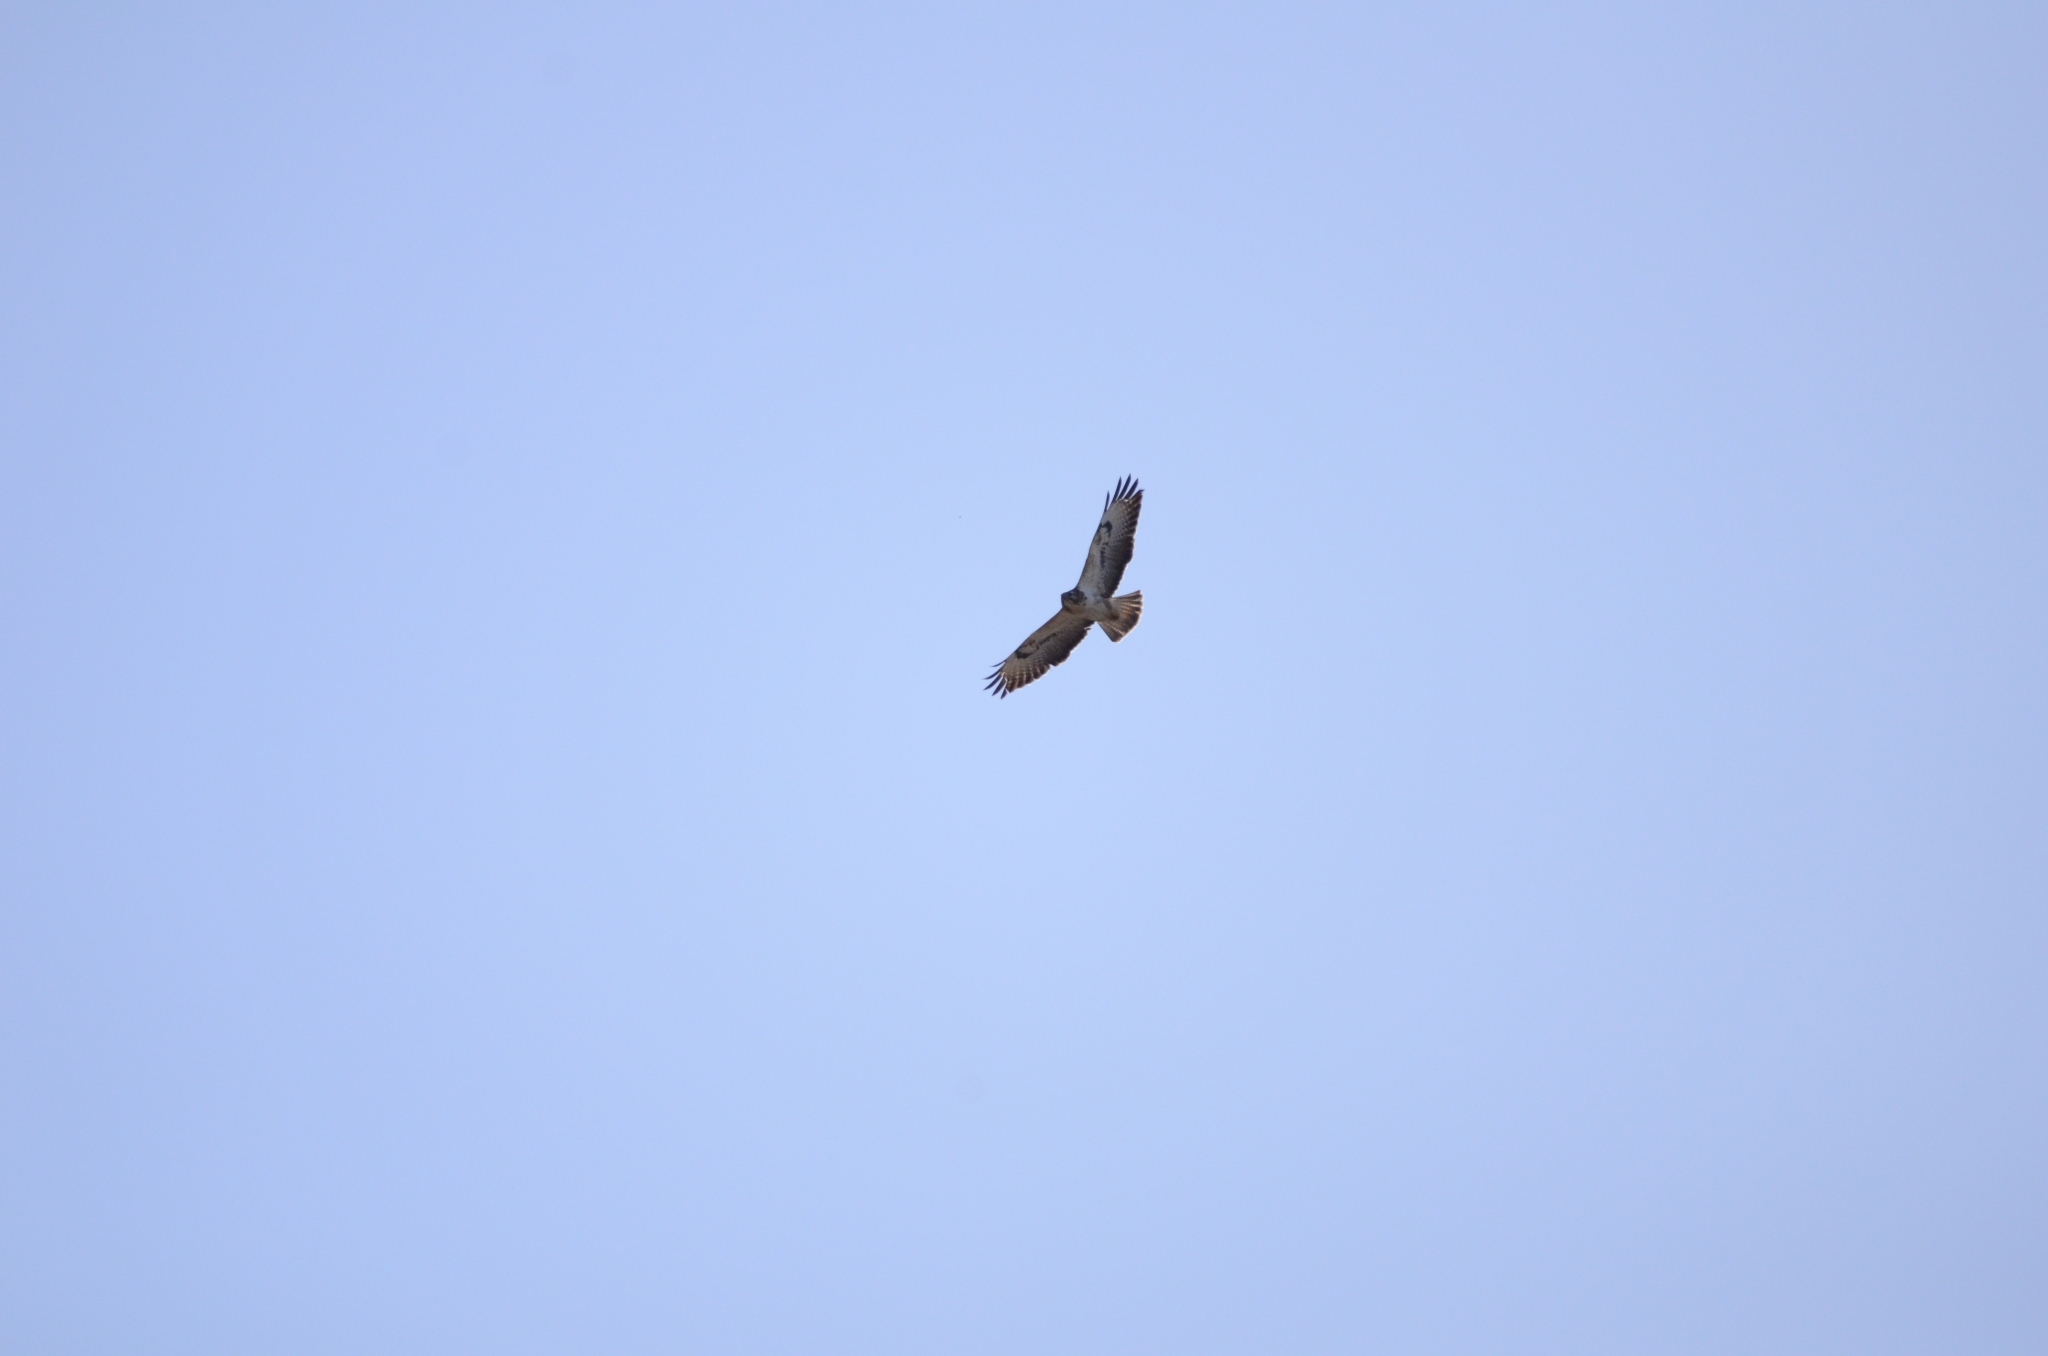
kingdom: Animalia
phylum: Chordata
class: Aves
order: Accipitriformes
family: Accipitridae
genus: Buteo
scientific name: Buteo buteo
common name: Common buzzard
